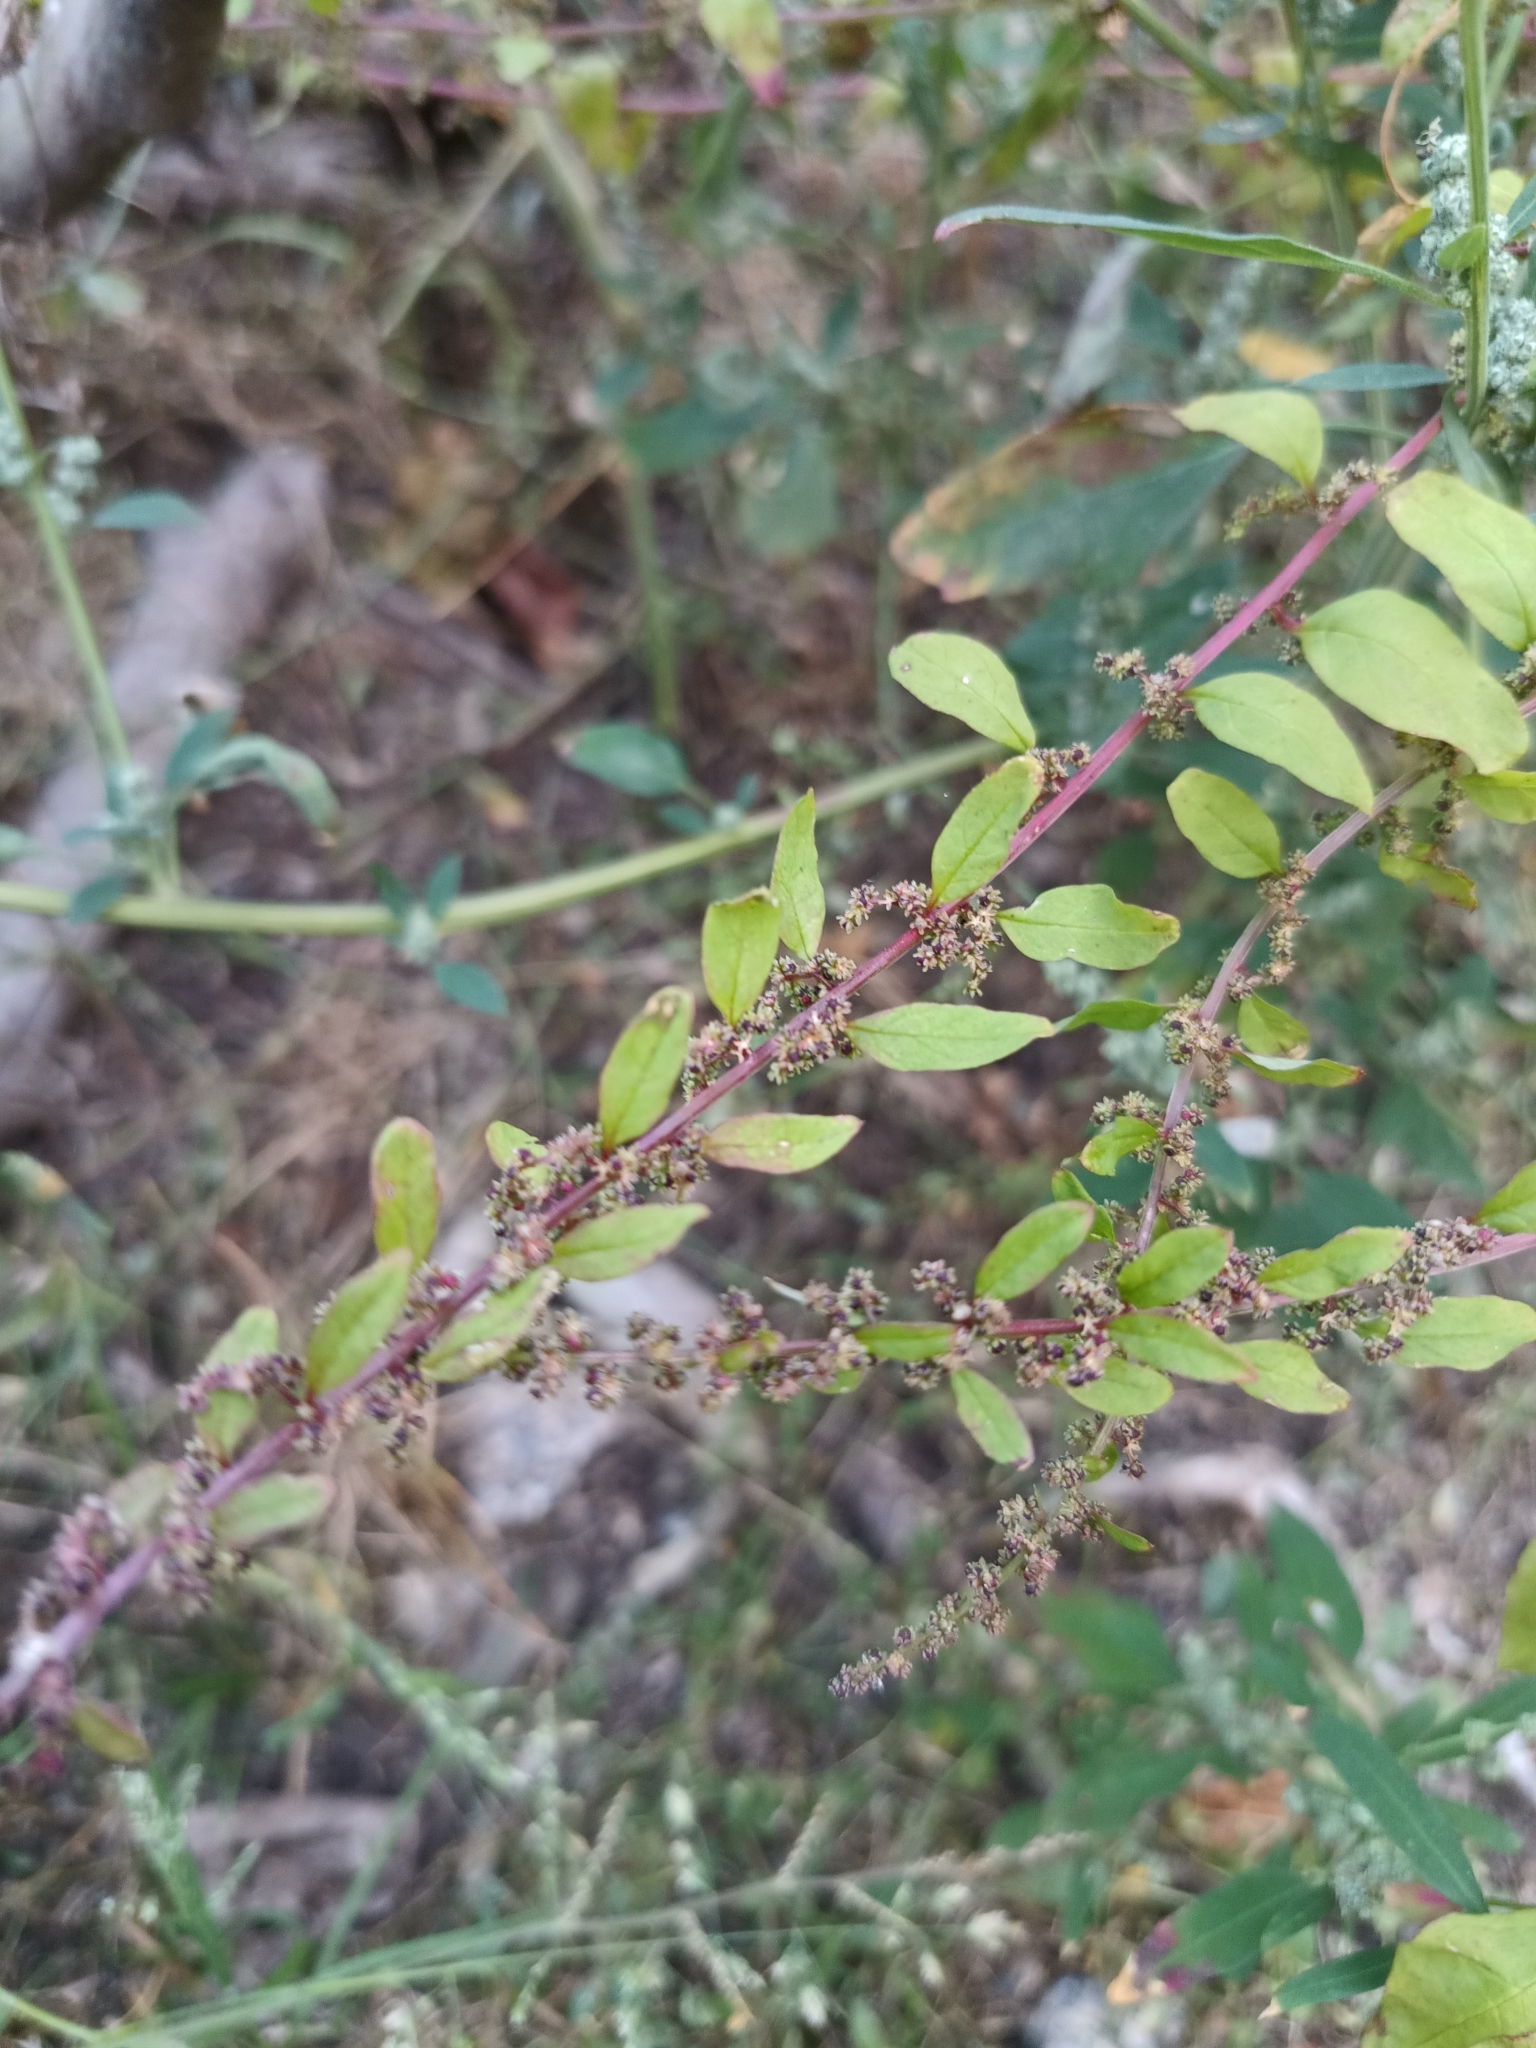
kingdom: Plantae
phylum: Tracheophyta
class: Magnoliopsida
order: Caryophyllales
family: Amaranthaceae
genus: Lipandra
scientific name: Lipandra polysperma
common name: Many-seed goosefoot
